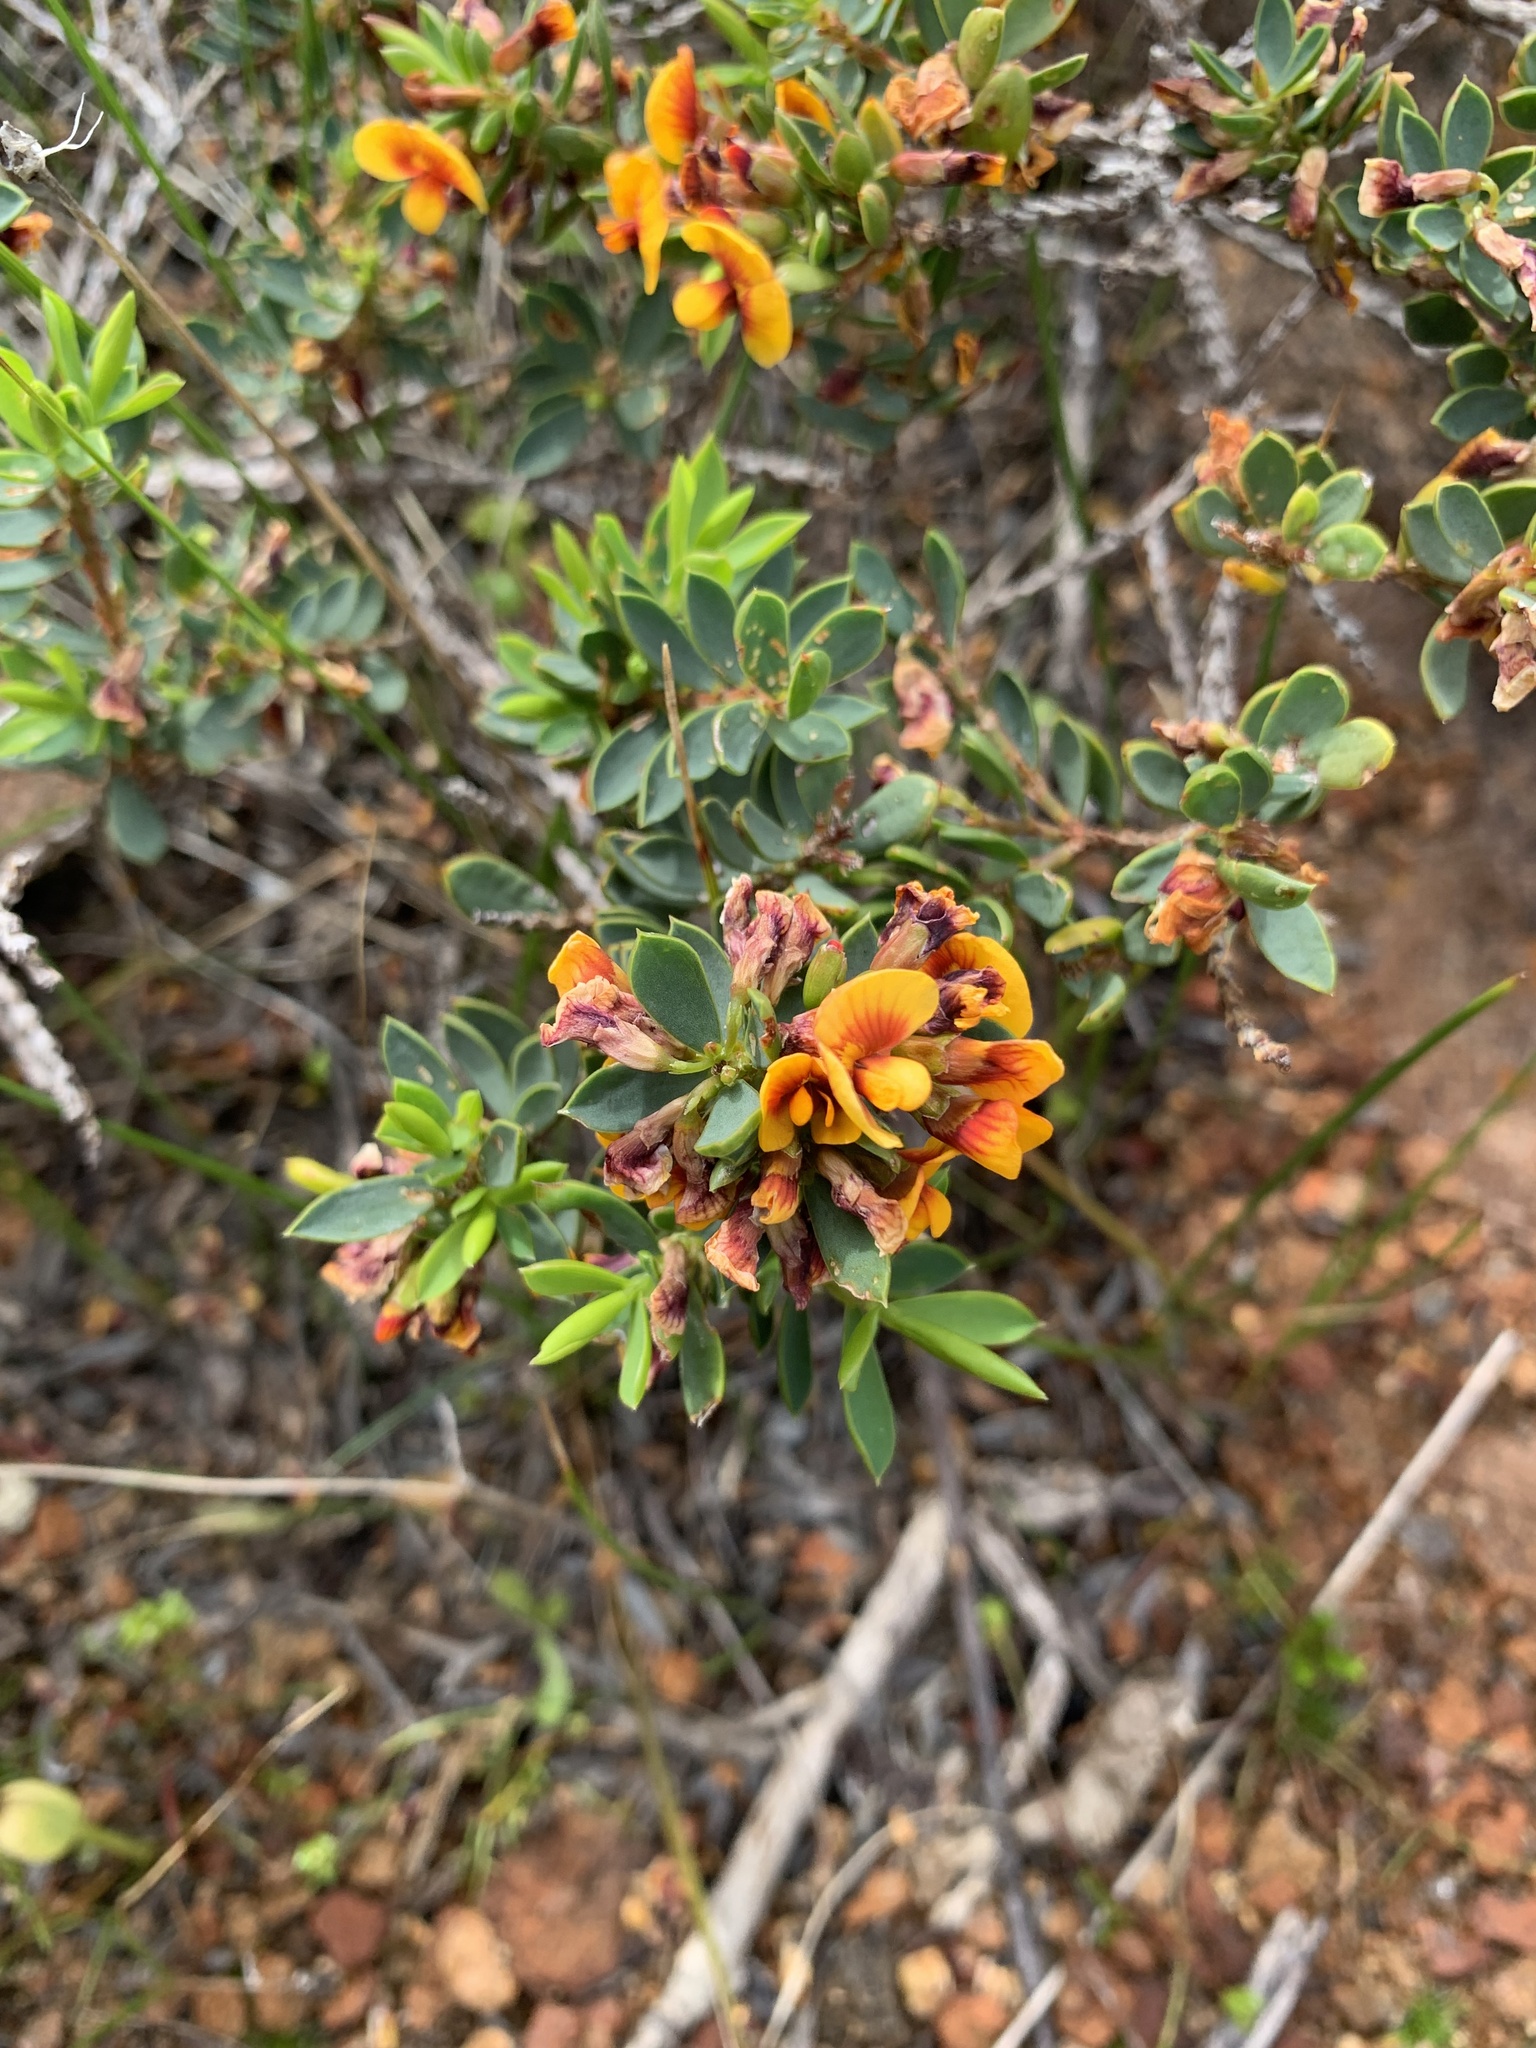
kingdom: Plantae
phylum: Tracheophyta
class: Magnoliopsida
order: Fabales
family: Fabaceae
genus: Eutaxia
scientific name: Eutaxia myrtifolia
